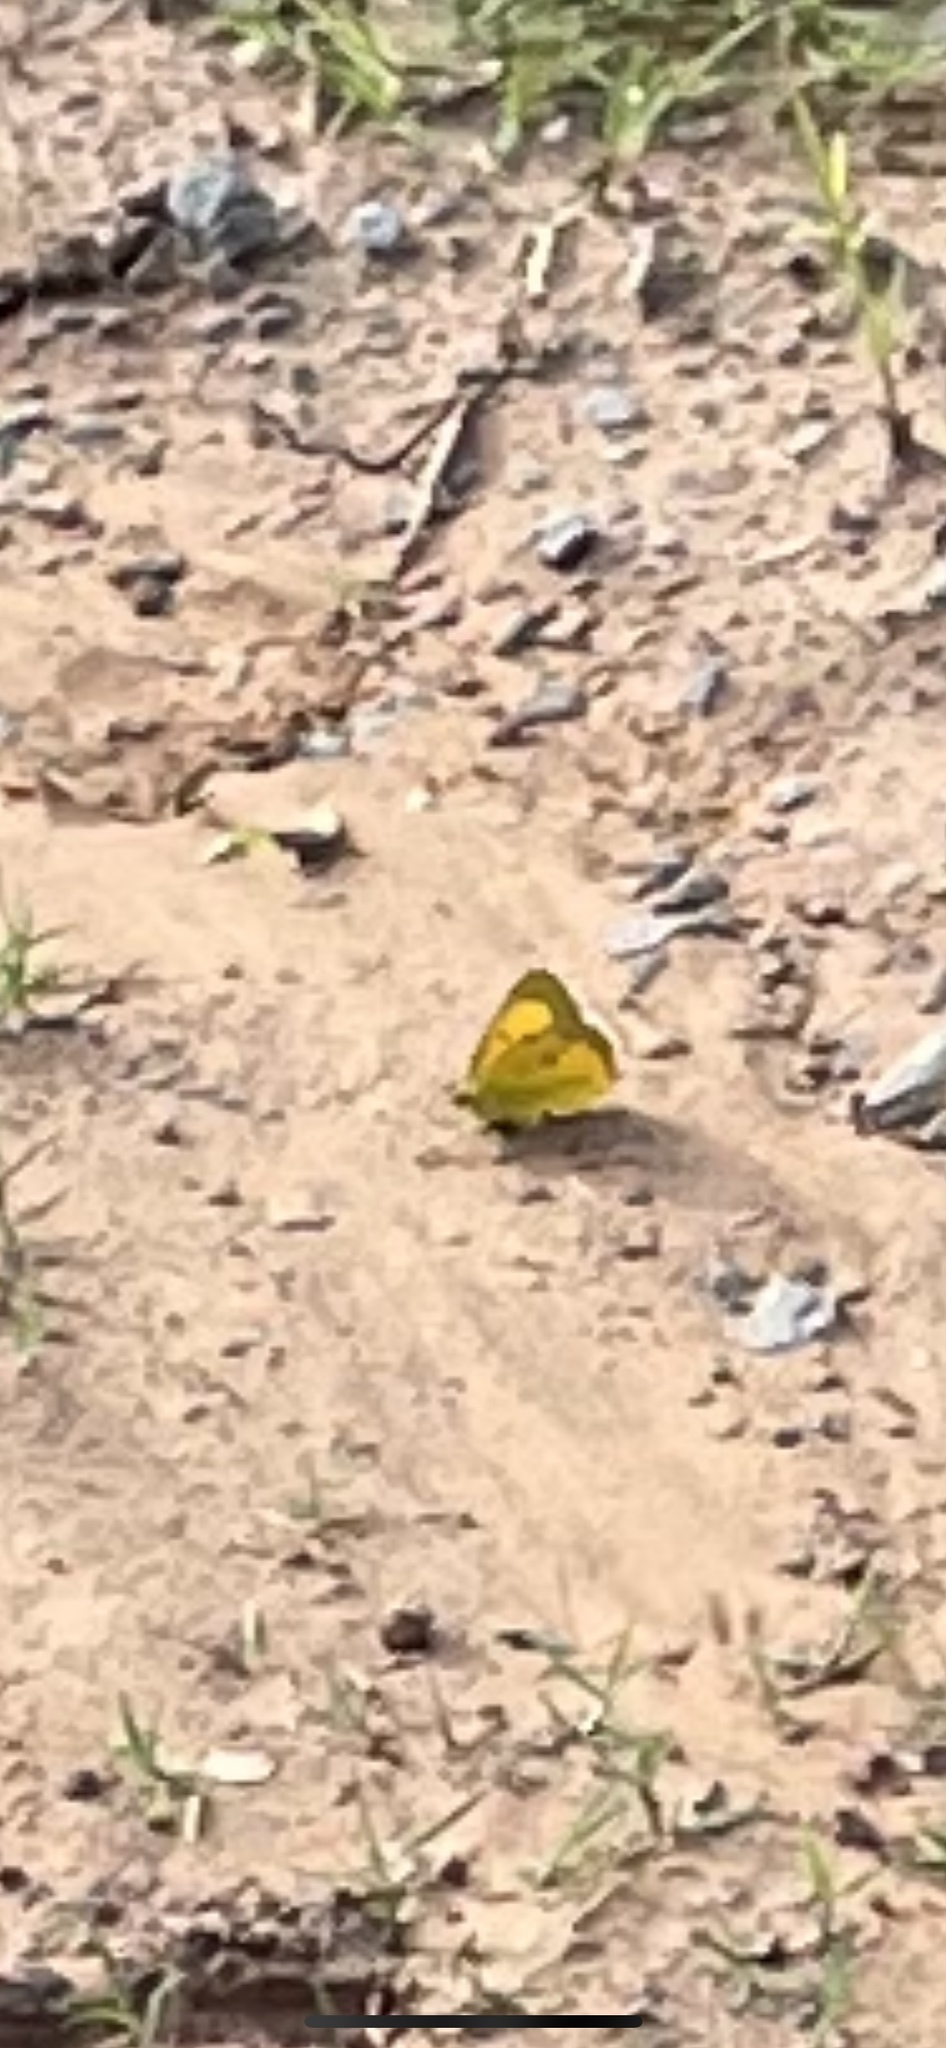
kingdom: Animalia
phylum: Arthropoda
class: Insecta
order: Lepidoptera
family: Pieridae
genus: Colias
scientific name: Colias eurytheme
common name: Alfalfa butterfly
